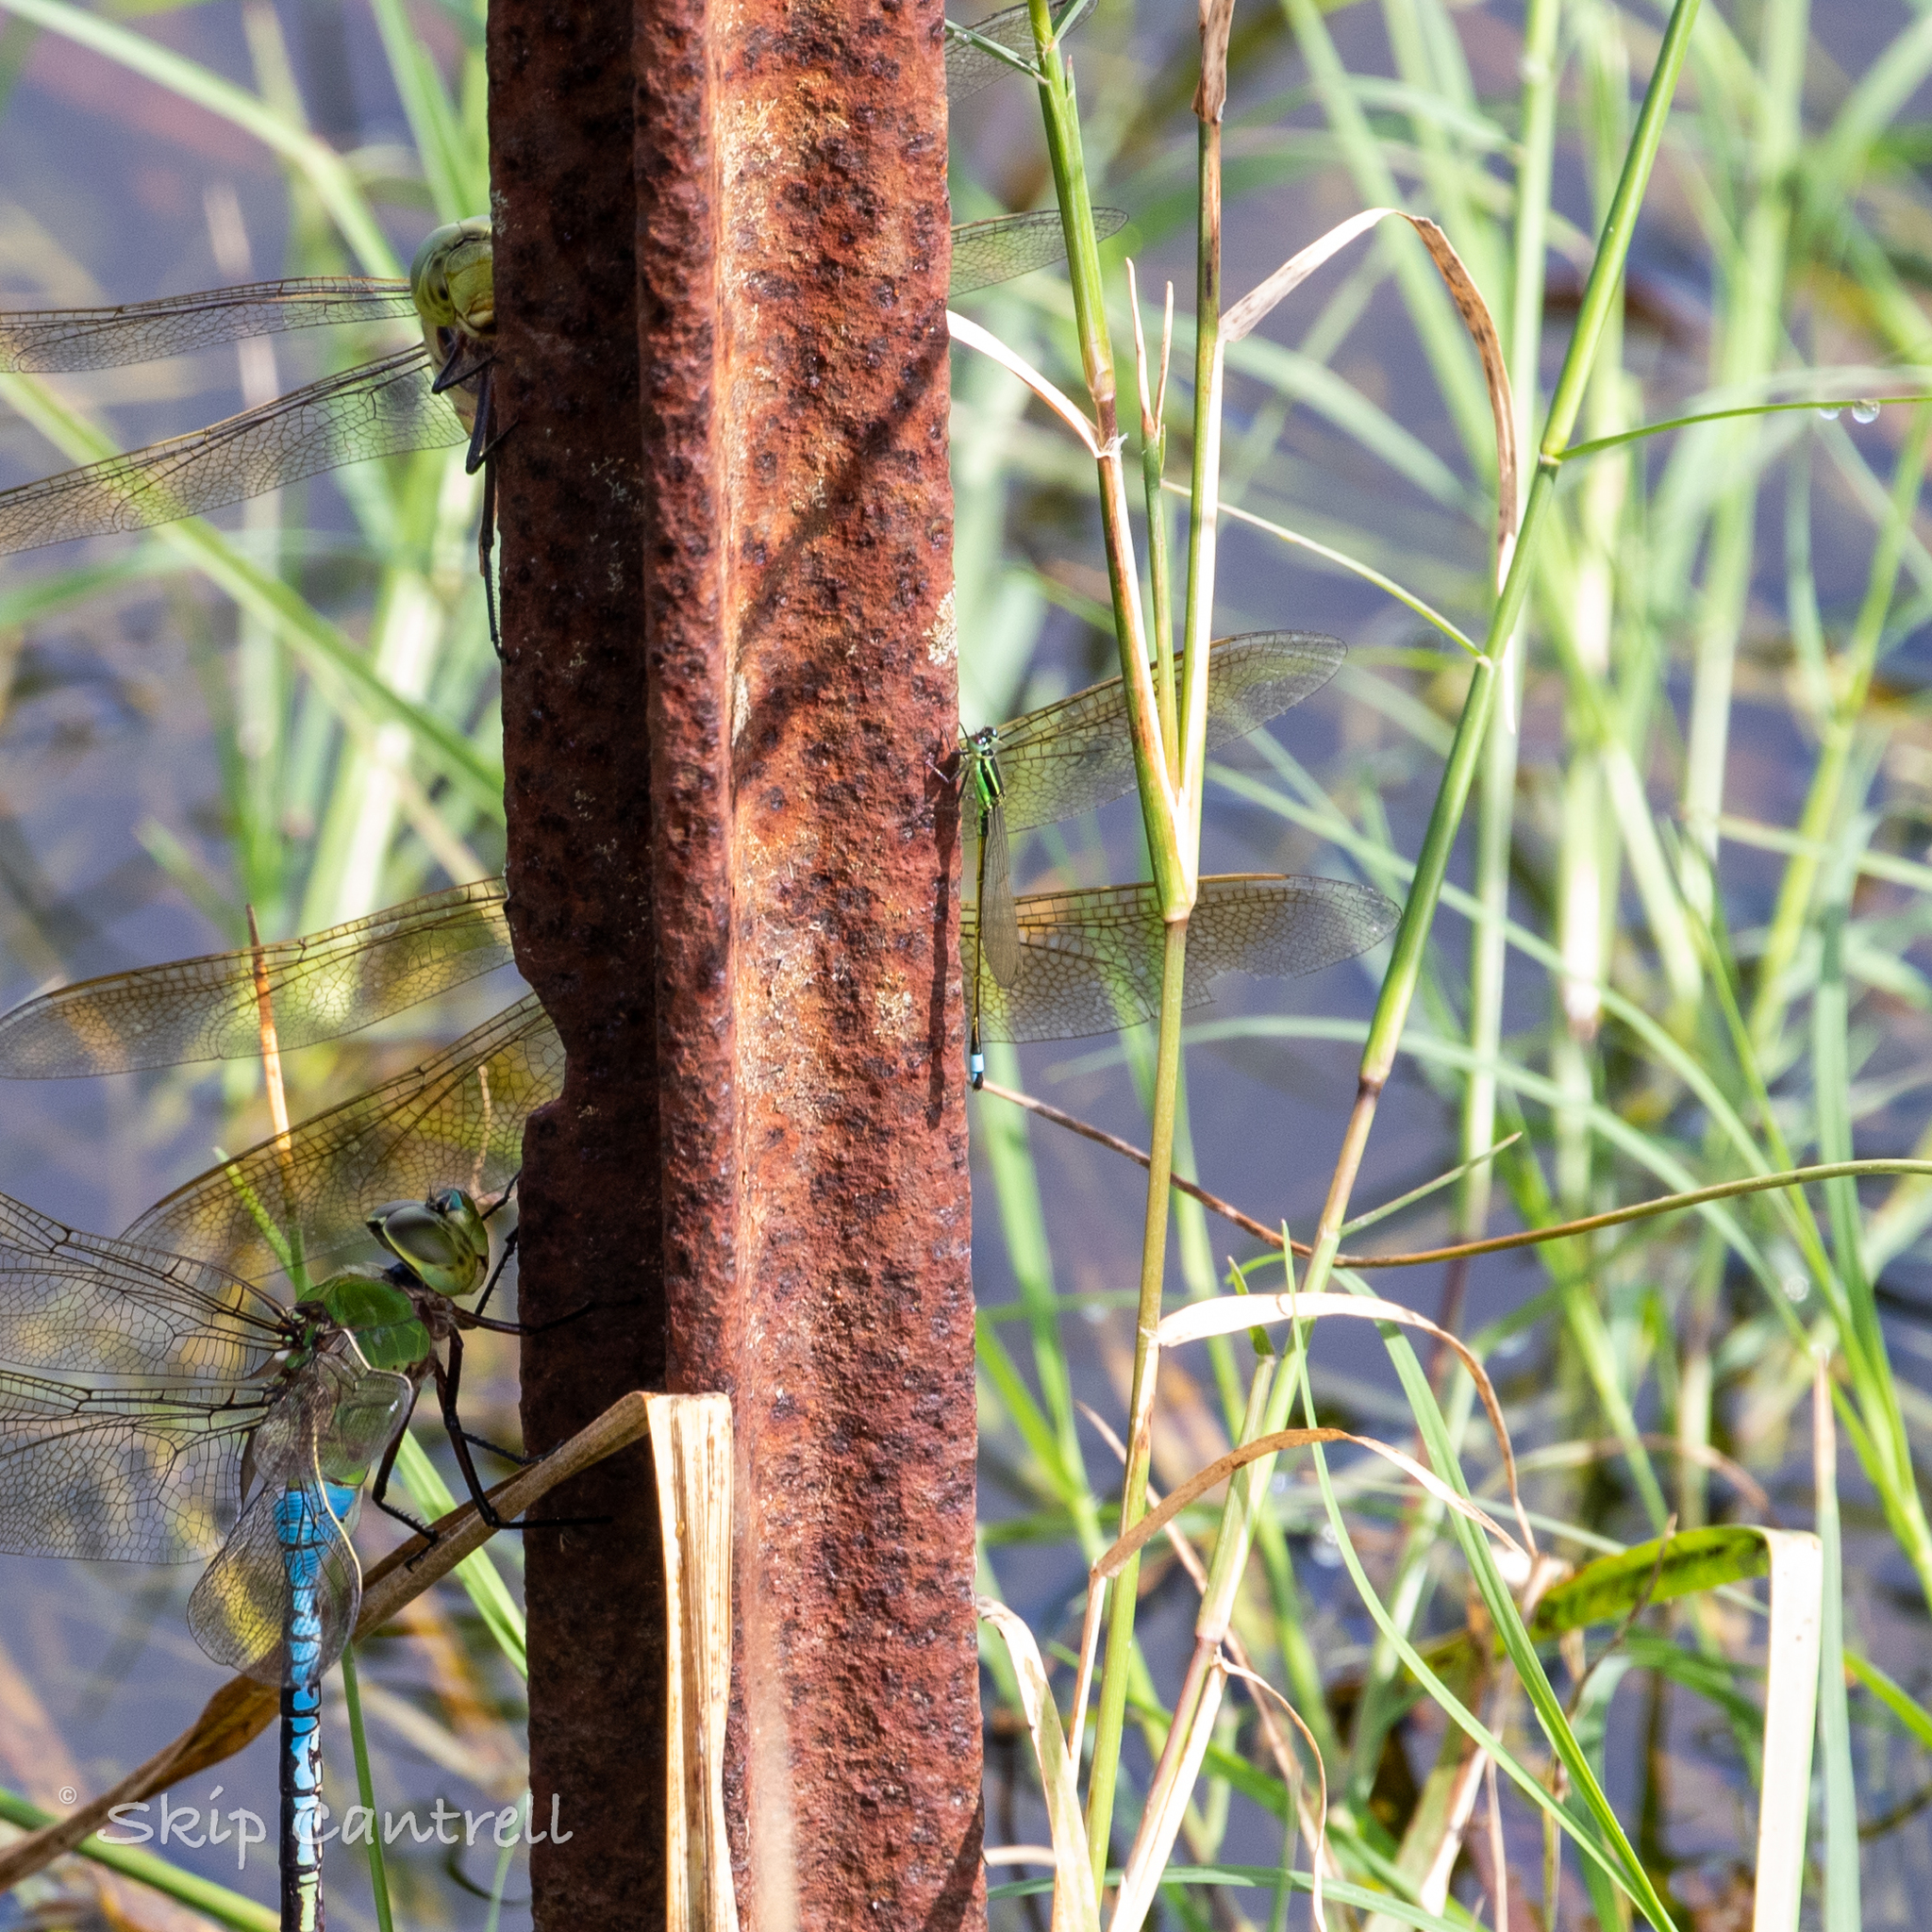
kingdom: Animalia
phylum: Arthropoda
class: Insecta
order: Odonata
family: Coenagrionidae
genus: Ischnura
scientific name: Ischnura ramburii
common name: Rambur's forktail
